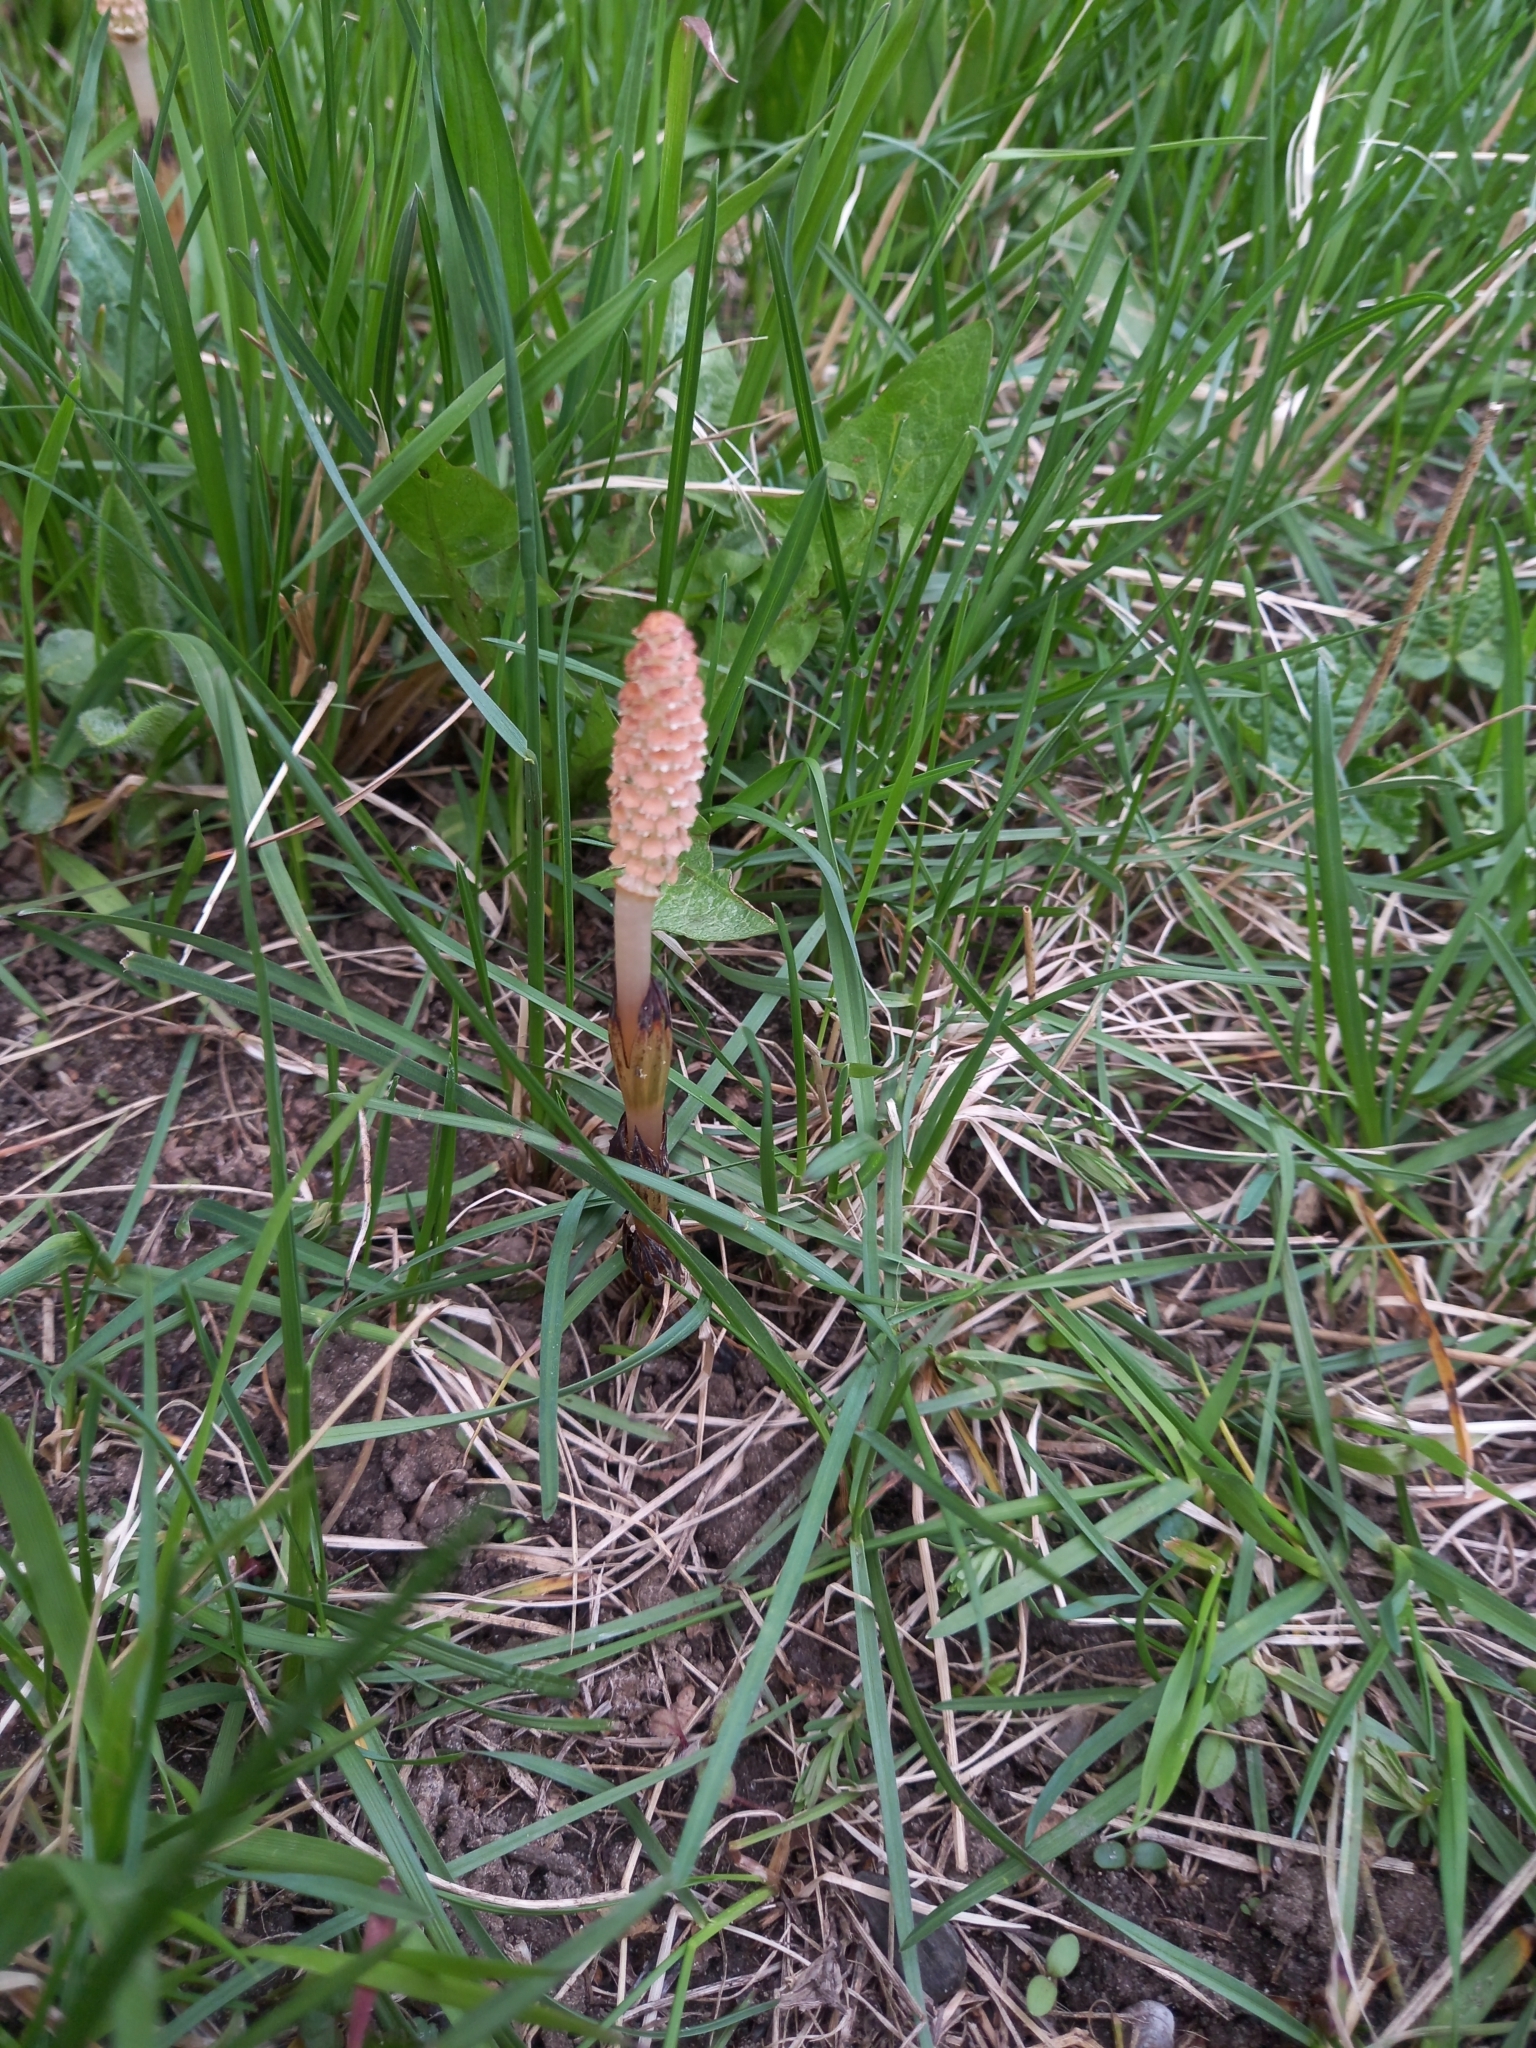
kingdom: Plantae
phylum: Tracheophyta
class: Polypodiopsida
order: Equisetales
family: Equisetaceae
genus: Equisetum
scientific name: Equisetum arvense
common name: Field horsetail
